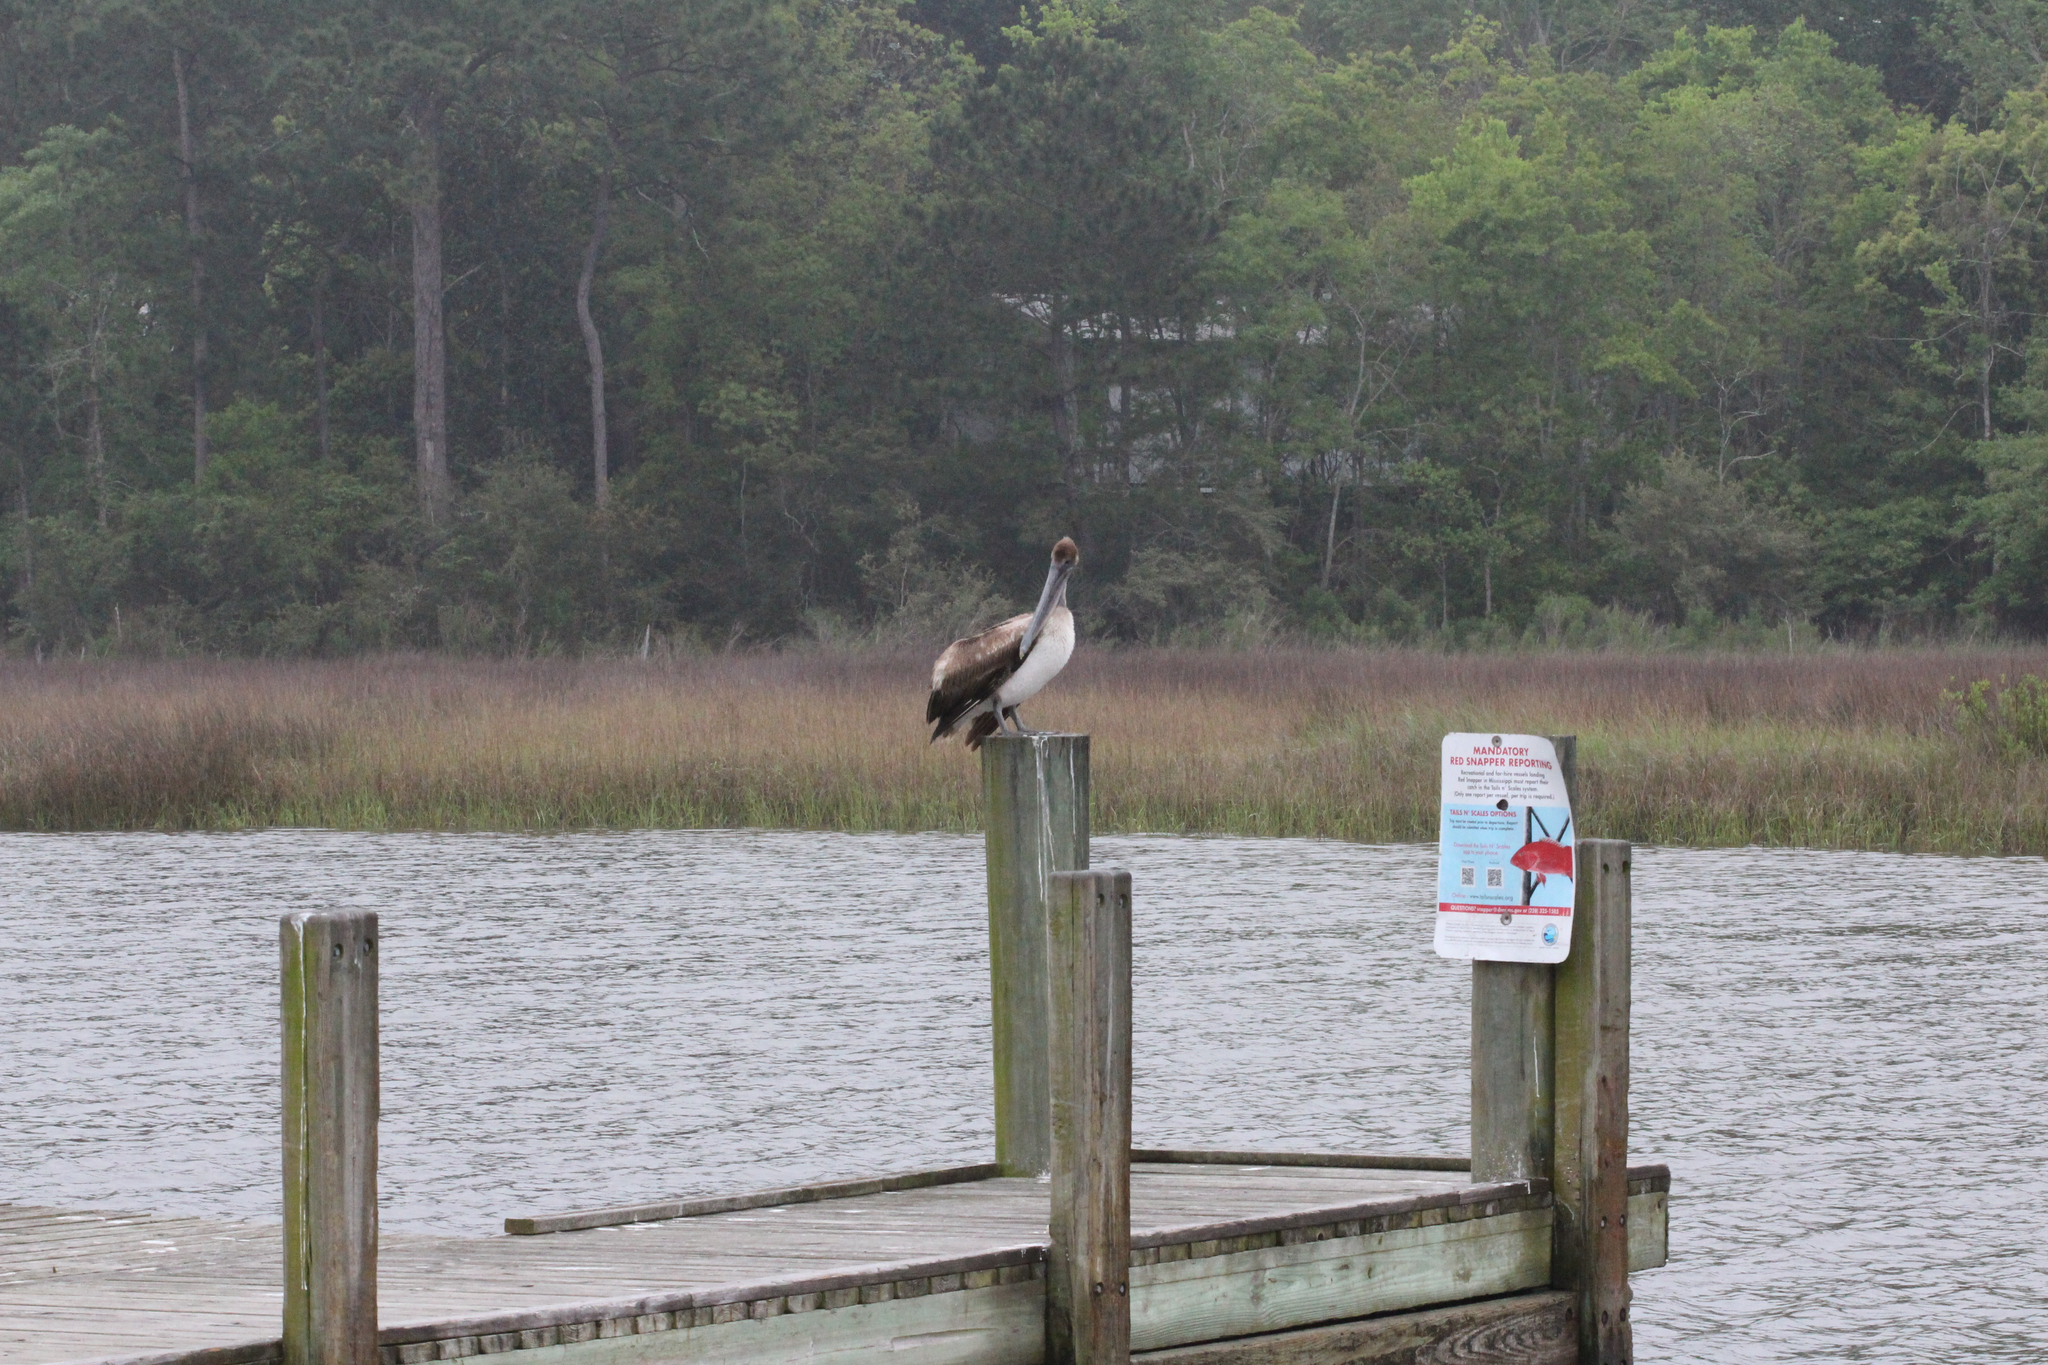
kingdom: Animalia
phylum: Chordata
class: Aves
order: Pelecaniformes
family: Pelecanidae
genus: Pelecanus
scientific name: Pelecanus occidentalis
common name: Brown pelican
